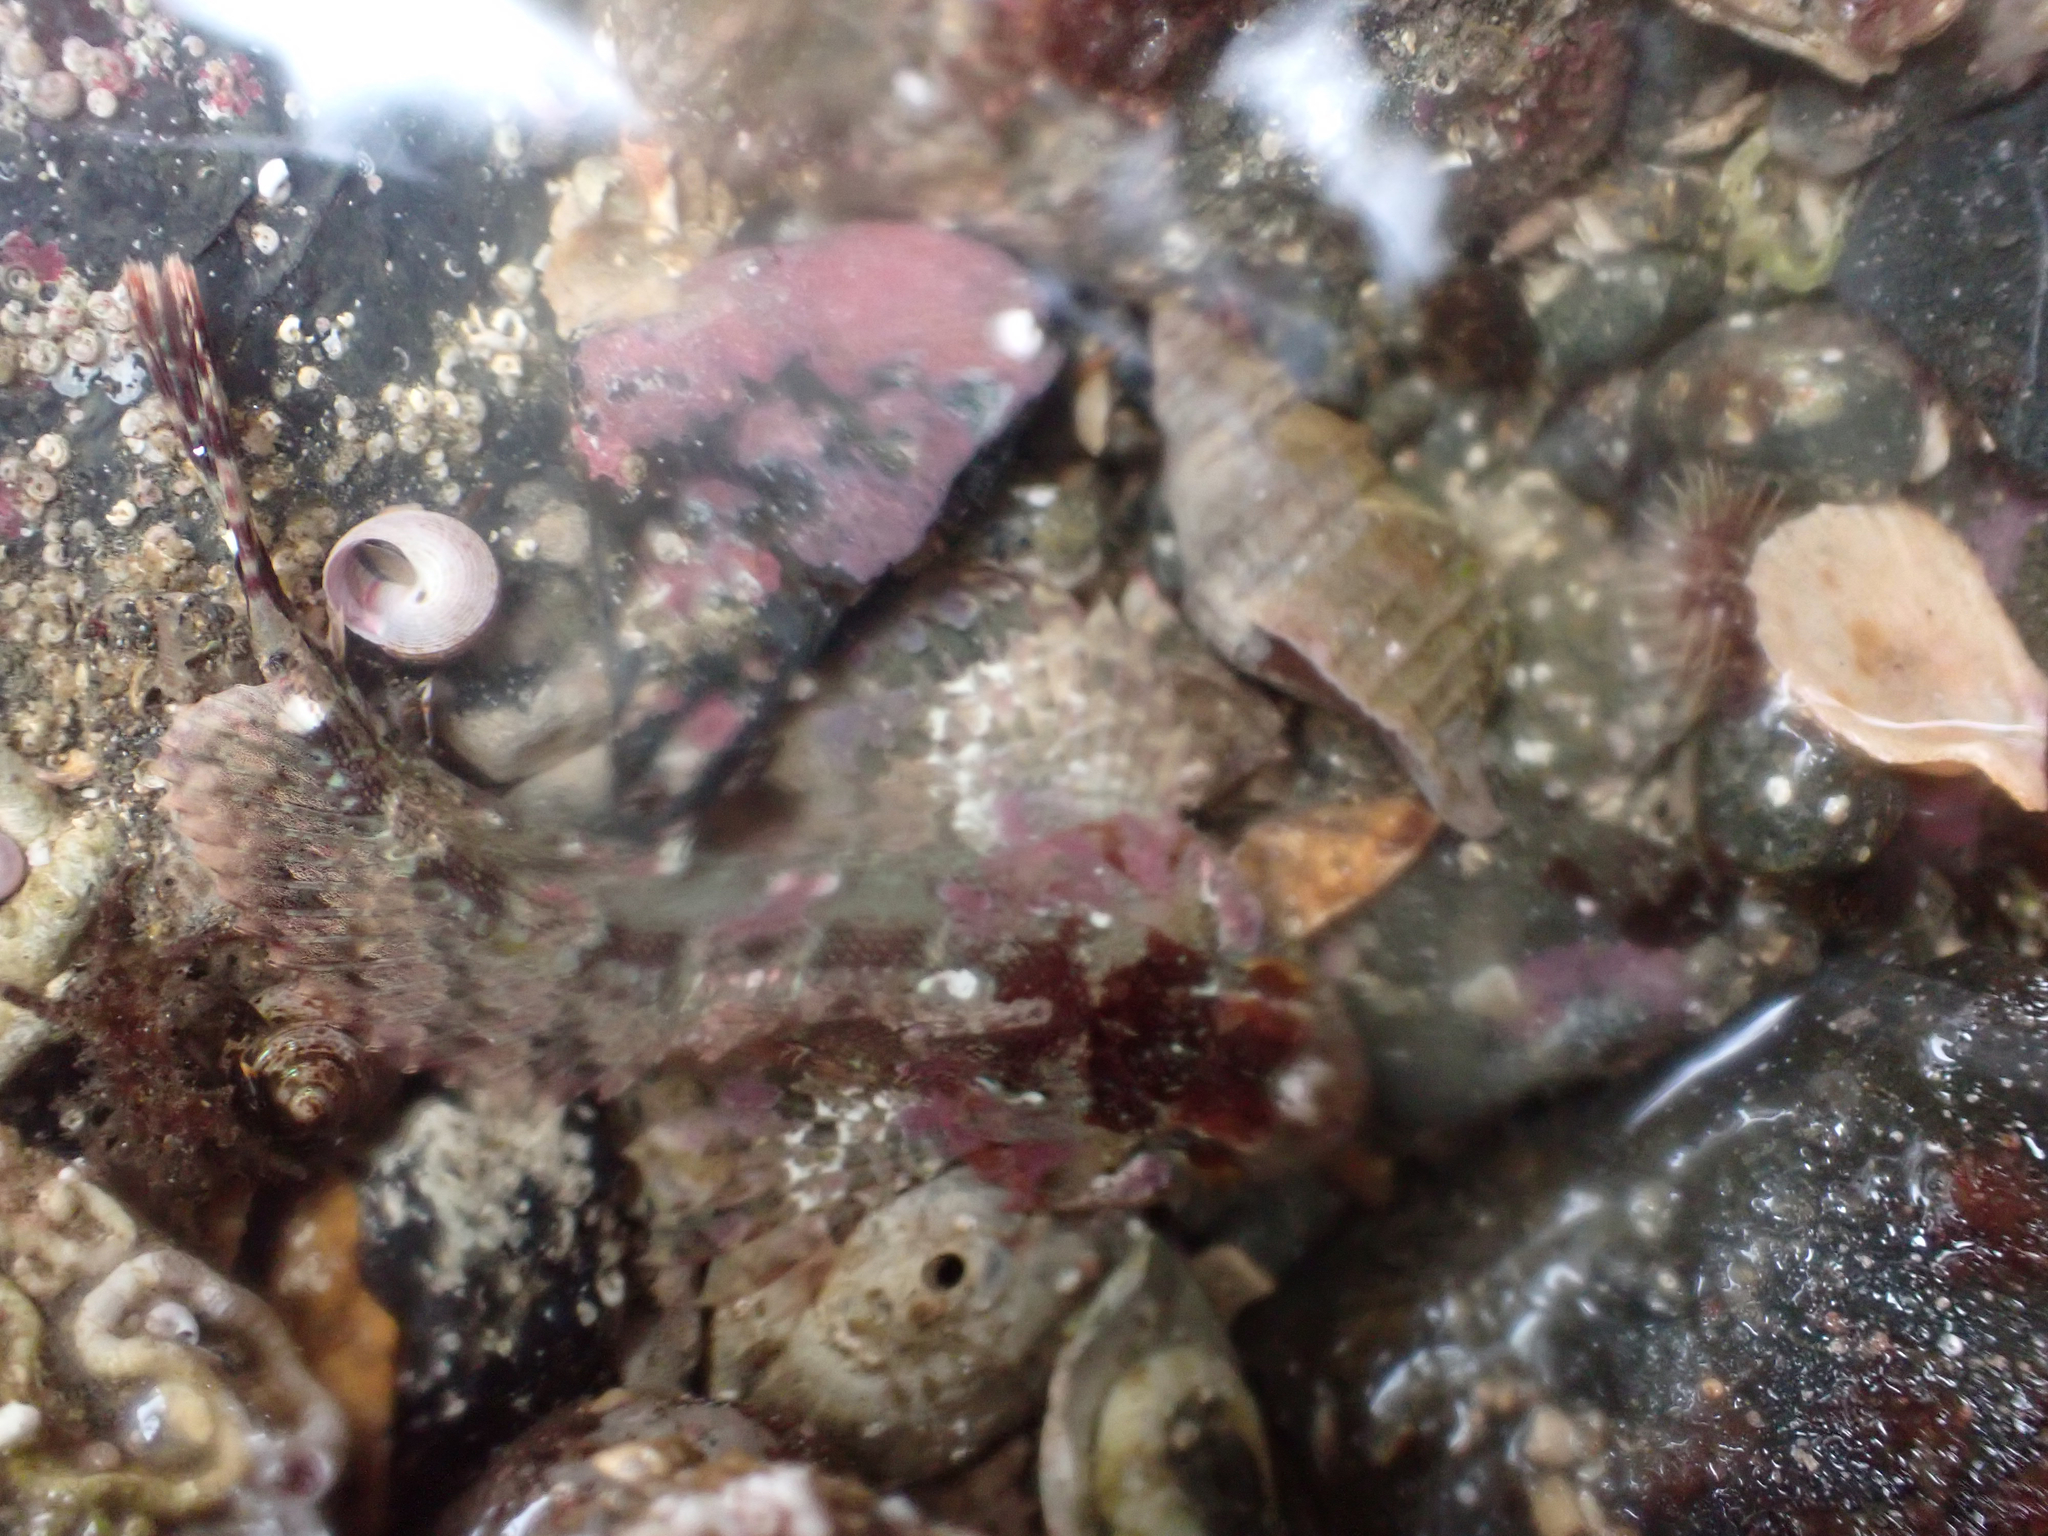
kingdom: Animalia
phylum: Chordata
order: Scorpaeniformes
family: Cottidae
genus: Hemilepidotus
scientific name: Hemilepidotus hemilepidotus
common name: Red irish lord
